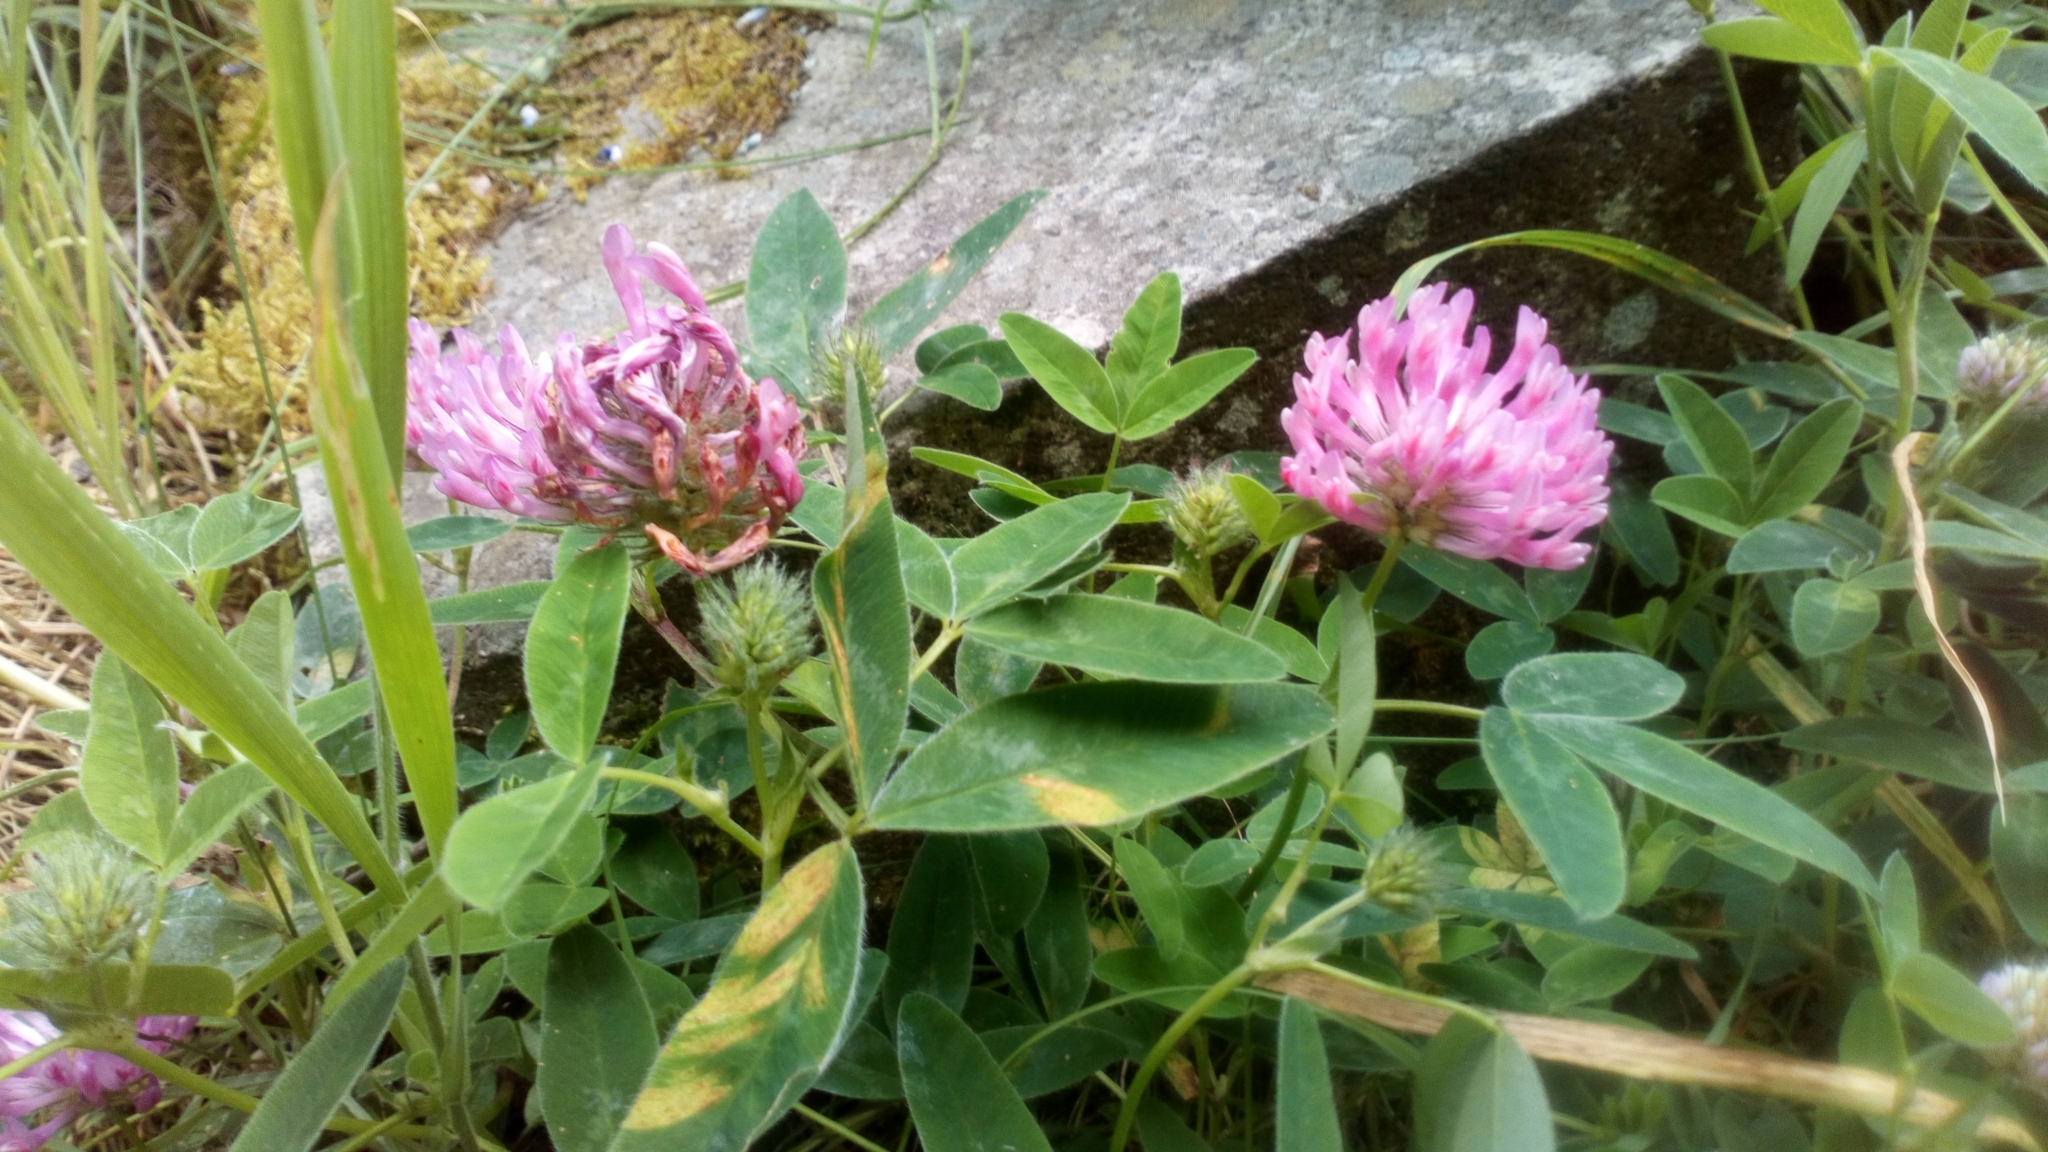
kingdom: Plantae
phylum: Tracheophyta
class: Magnoliopsida
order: Fabales
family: Fabaceae
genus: Trifolium
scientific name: Trifolium medium
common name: Zigzag clover
